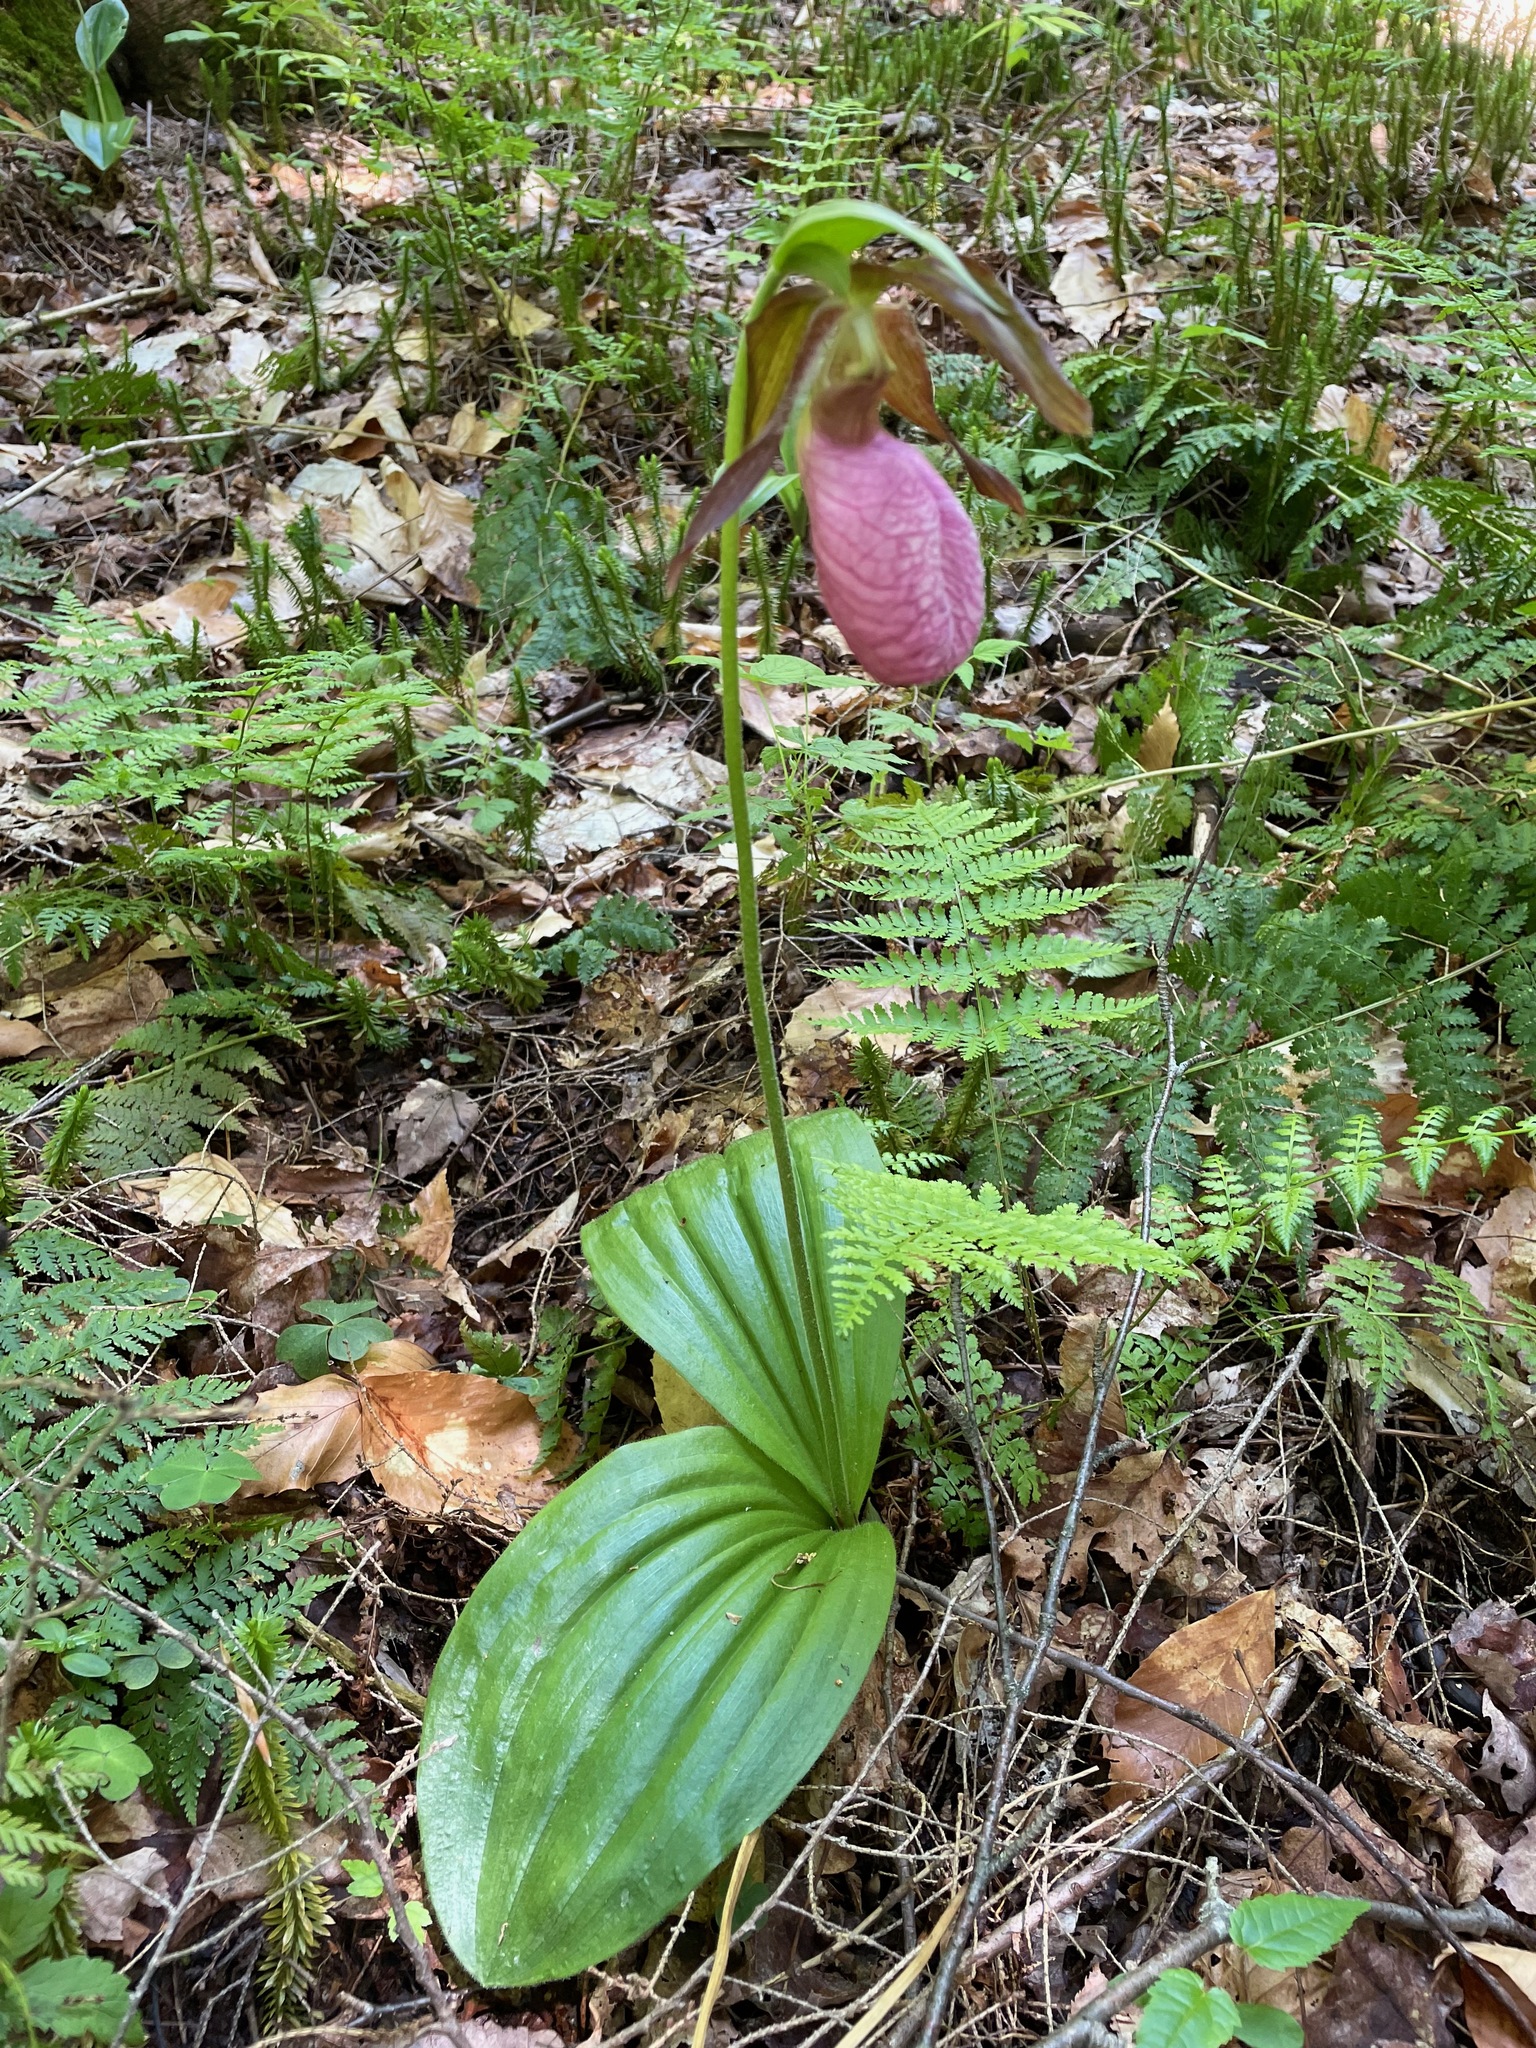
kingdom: Plantae
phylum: Tracheophyta
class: Liliopsida
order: Asparagales
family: Orchidaceae
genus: Cypripedium
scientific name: Cypripedium acaule
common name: Pink lady's-slipper
